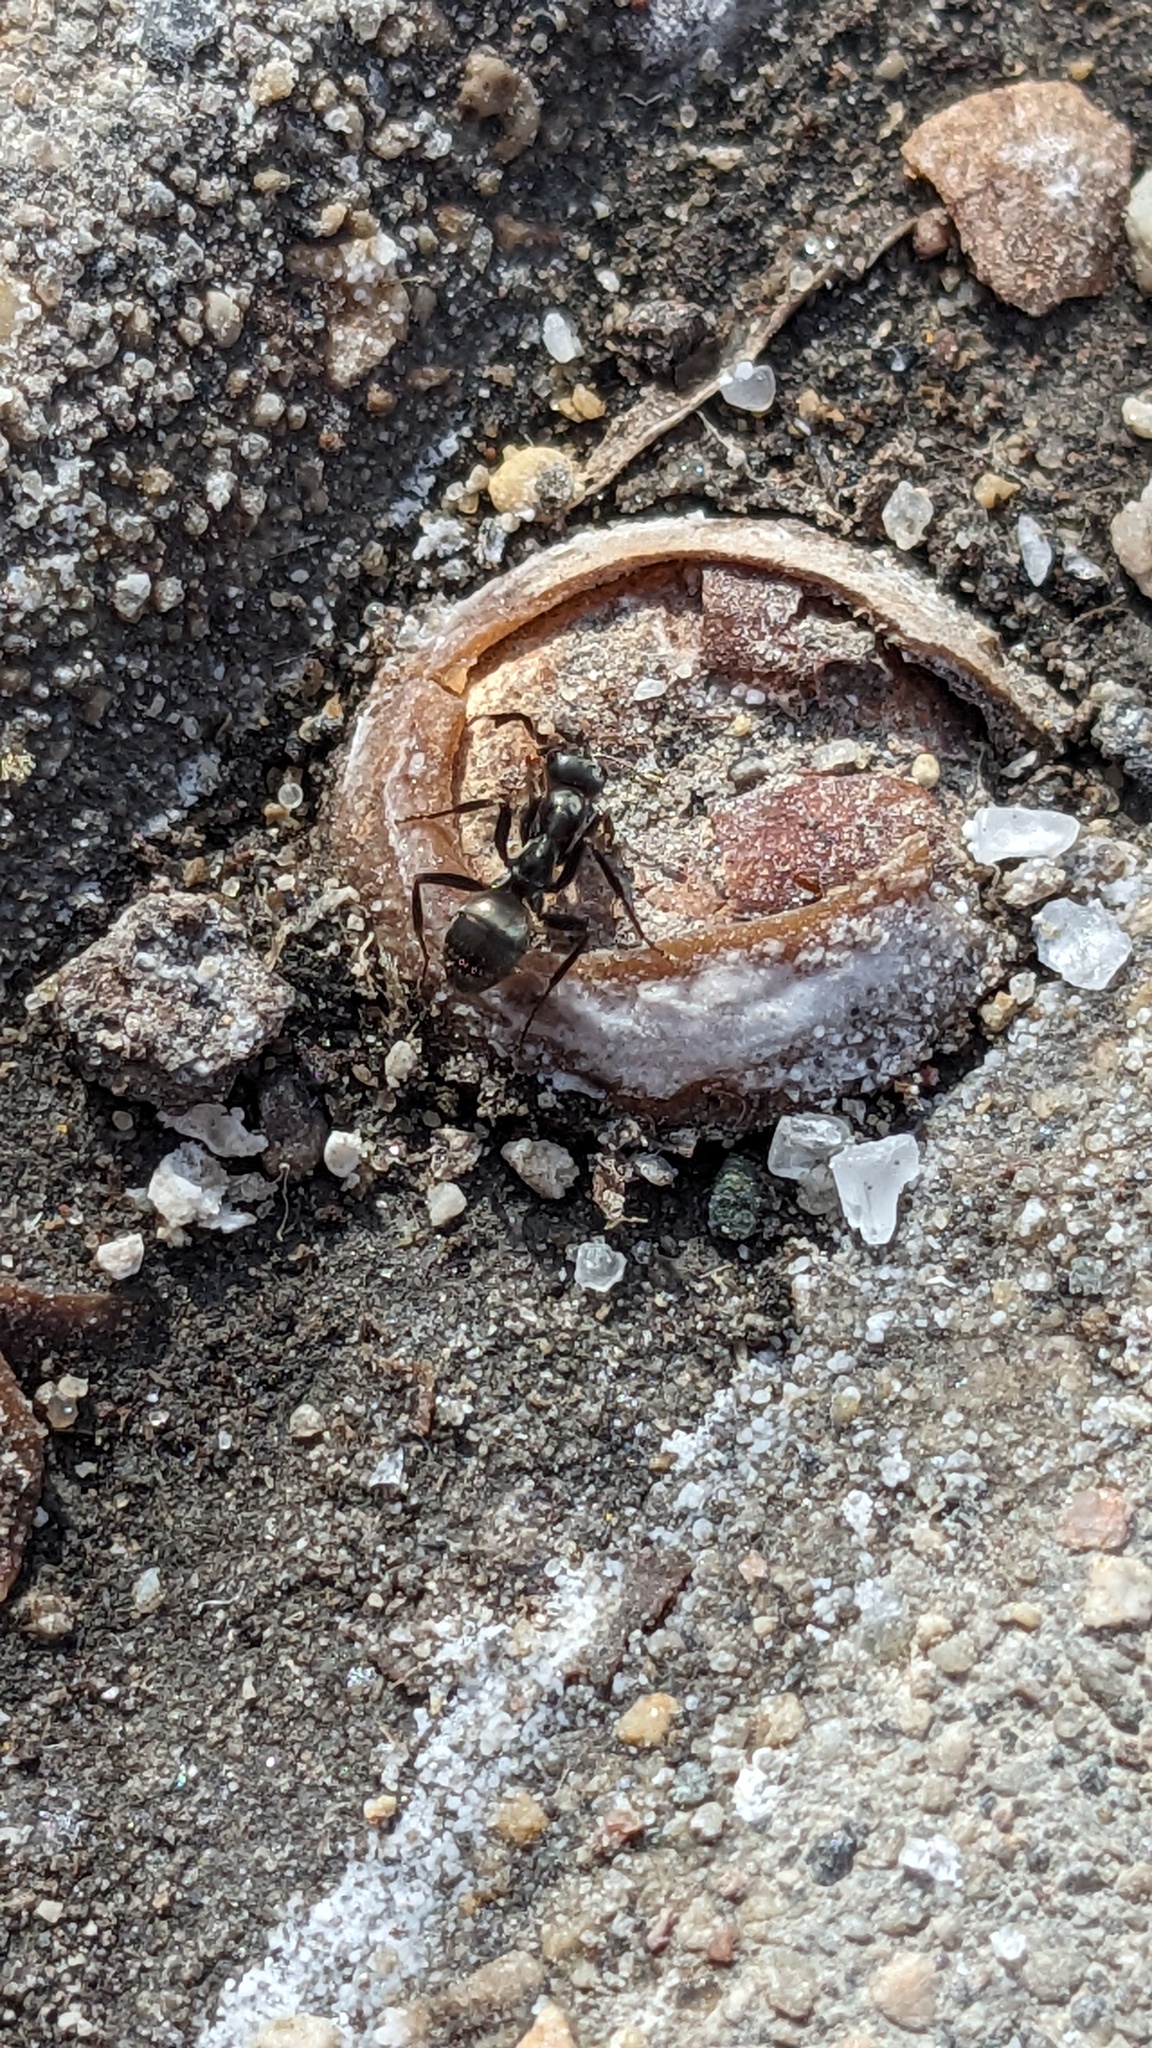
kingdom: Animalia
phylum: Arthropoda
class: Insecta
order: Hymenoptera
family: Formicidae
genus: Formica
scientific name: Formica subsericea
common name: Silky field ant
